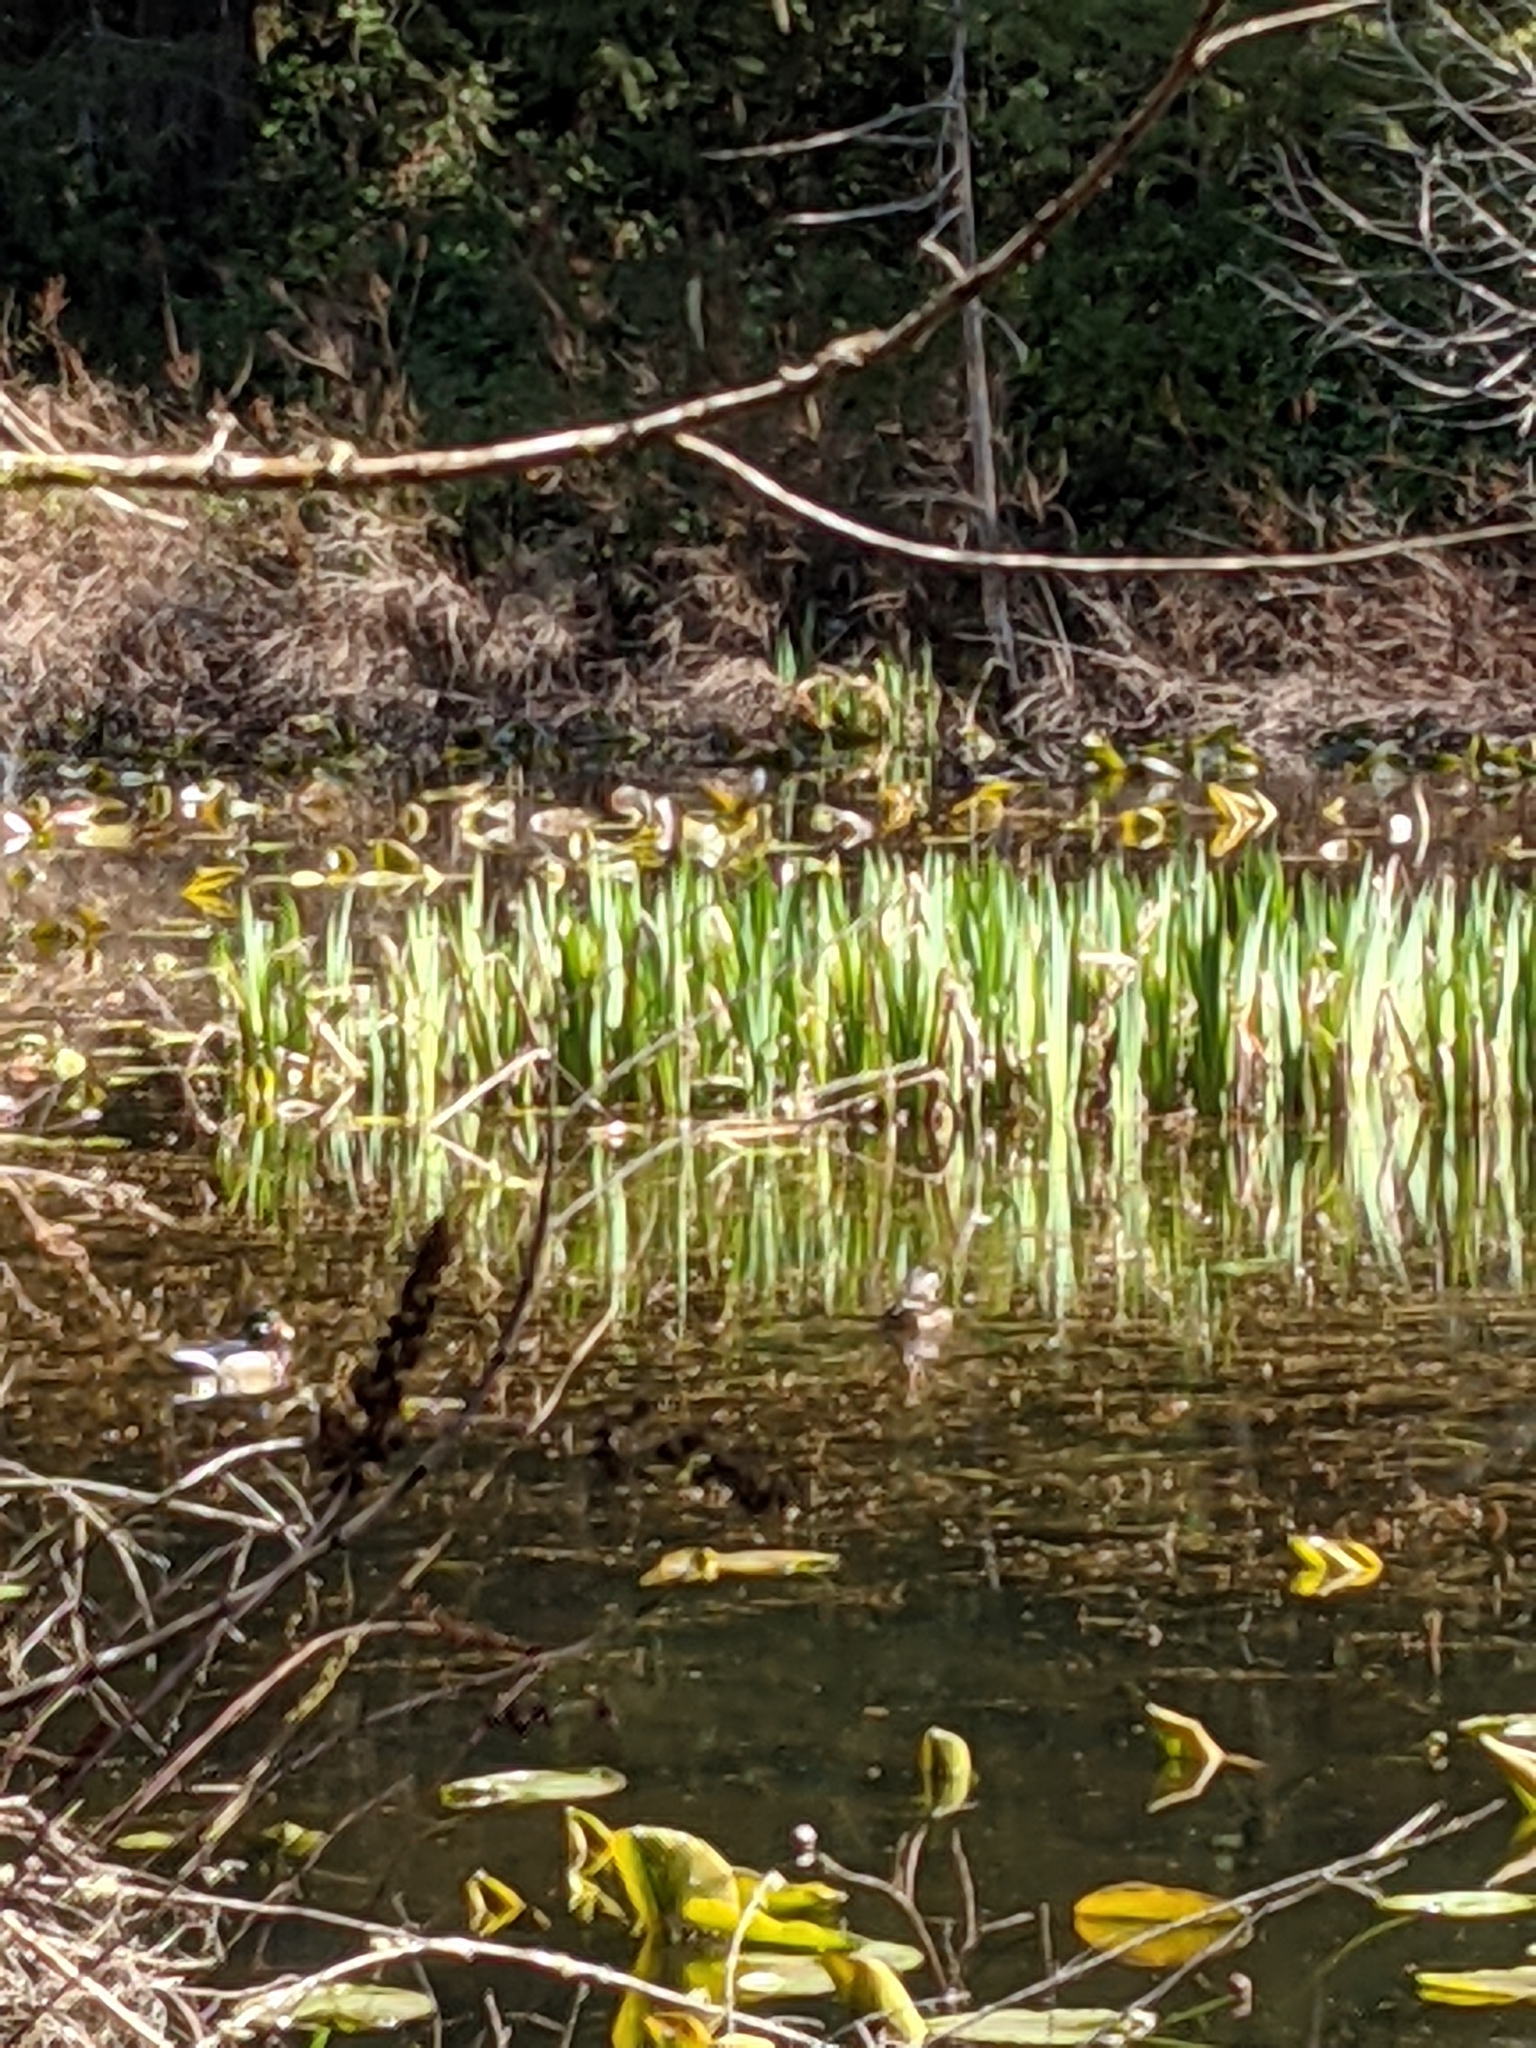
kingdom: Animalia
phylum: Chordata
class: Aves
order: Anseriformes
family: Anatidae
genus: Aix
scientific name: Aix sponsa
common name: Wood duck
